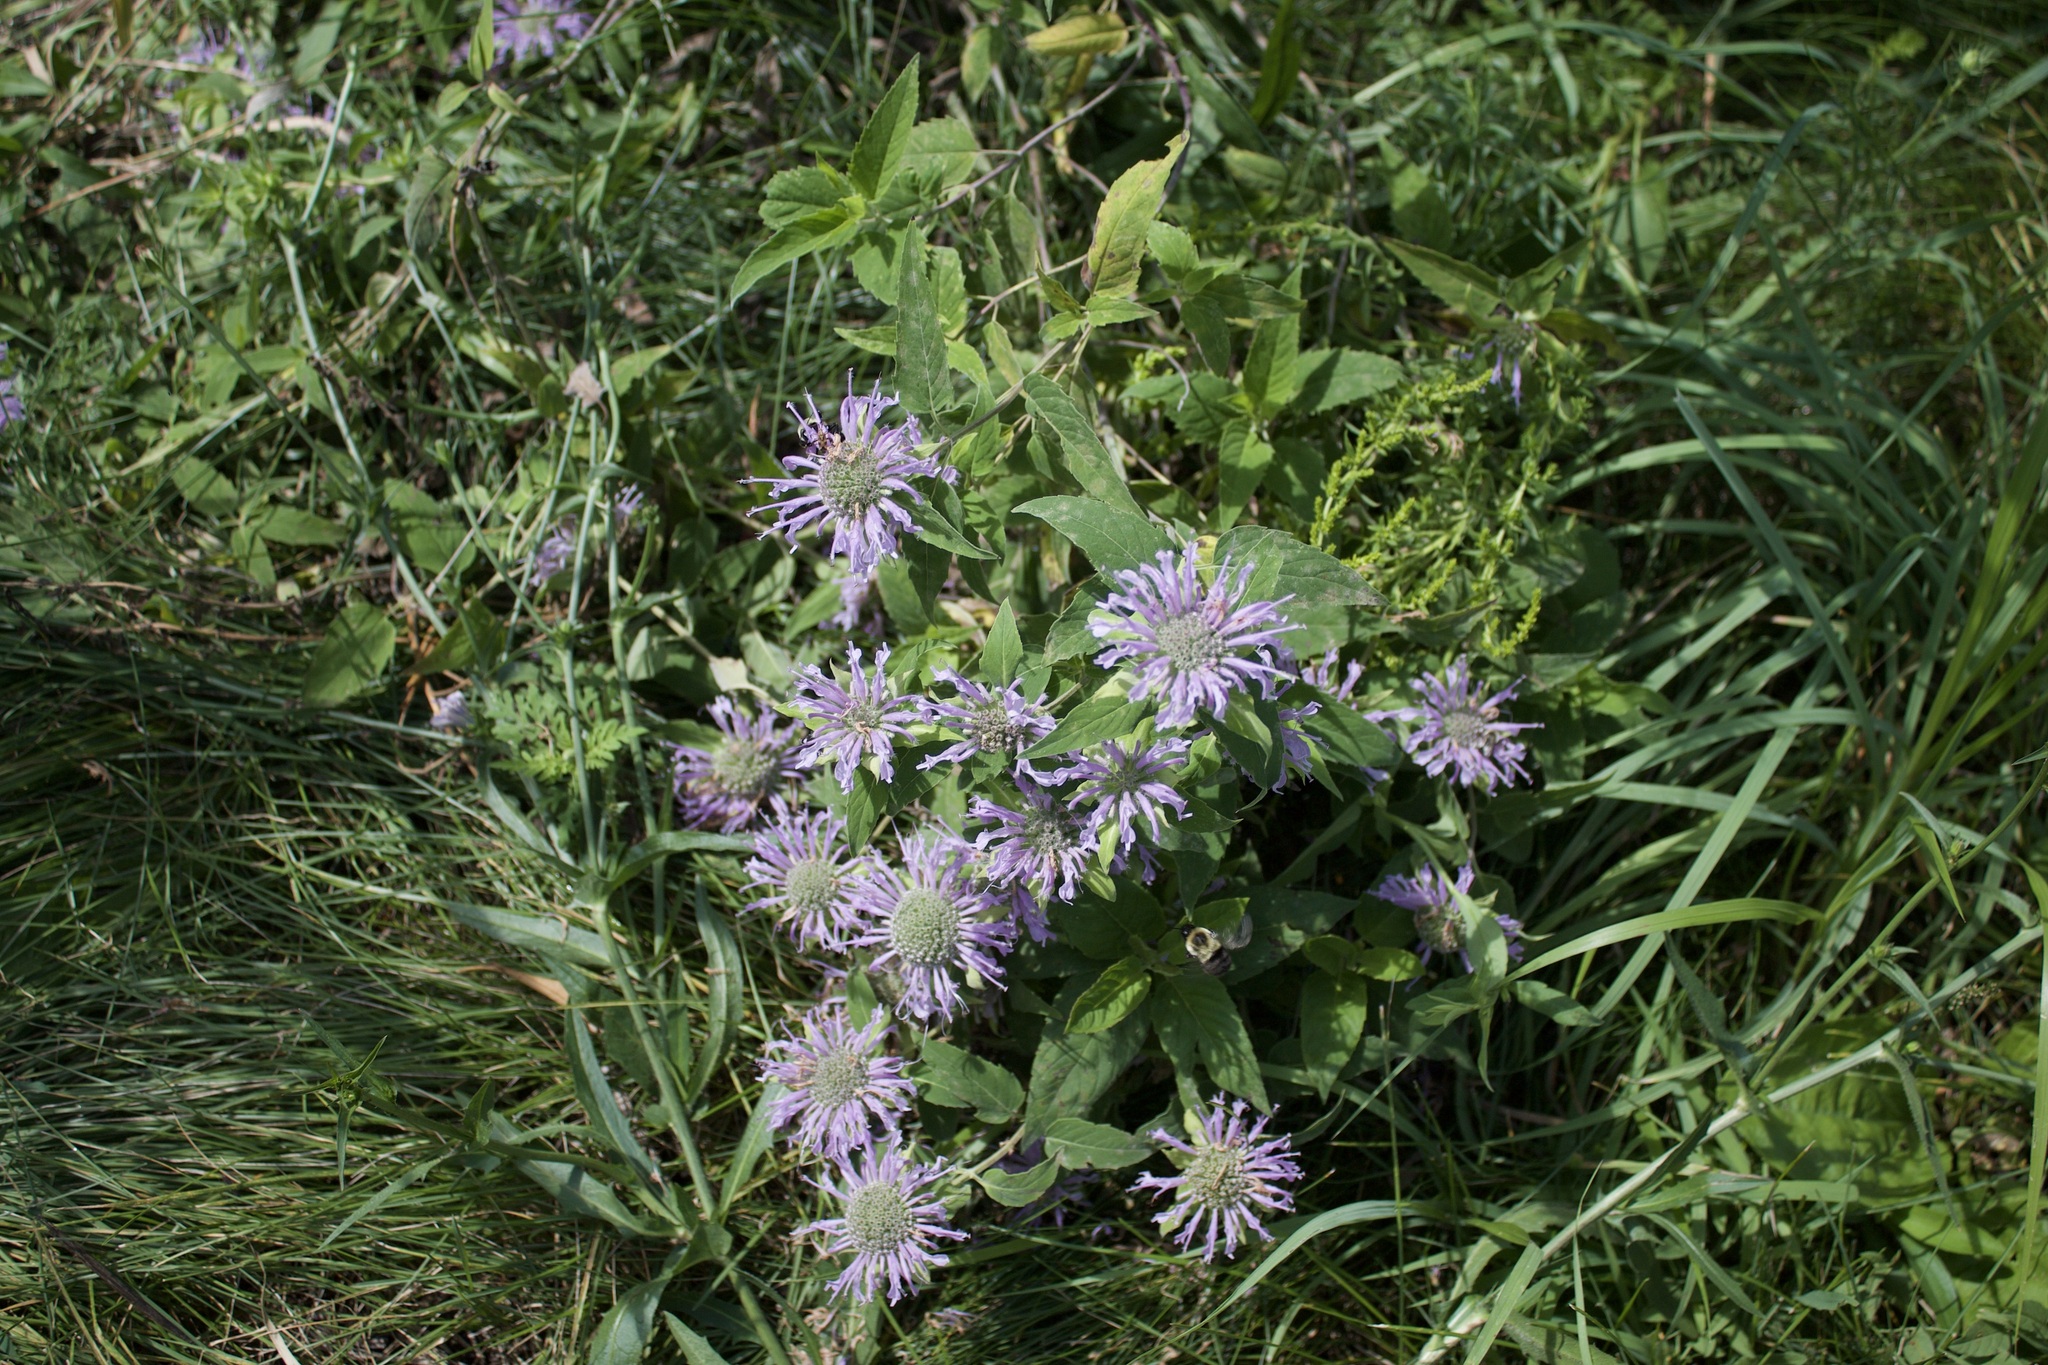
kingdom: Animalia
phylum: Arthropoda
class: Insecta
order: Hymenoptera
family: Apidae
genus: Bombus
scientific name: Bombus impatiens
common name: Common eastern bumble bee
